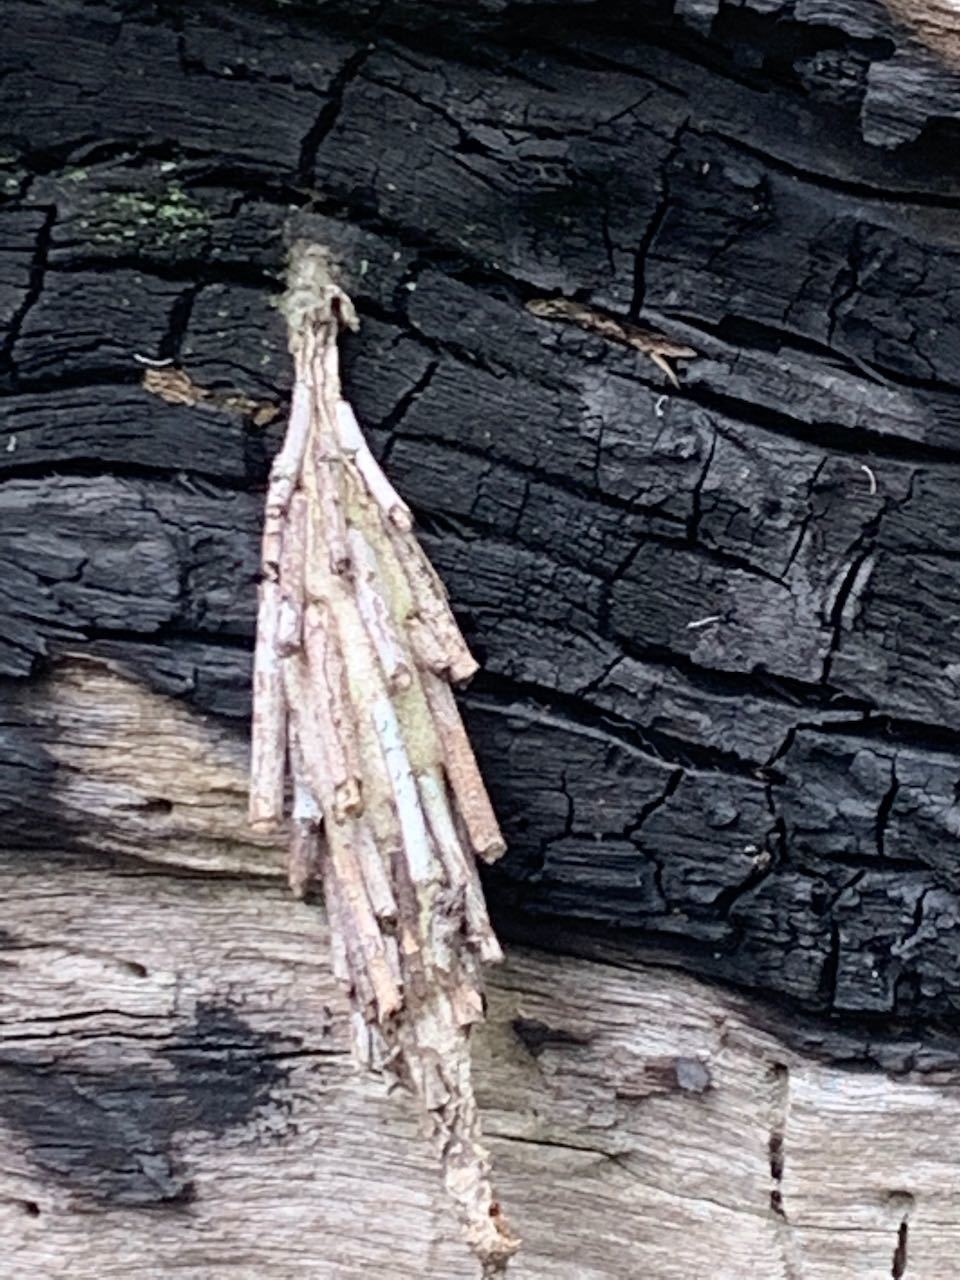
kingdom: Animalia
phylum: Arthropoda
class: Insecta
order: Lepidoptera
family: Psychidae
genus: Metura
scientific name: Metura elongatus
